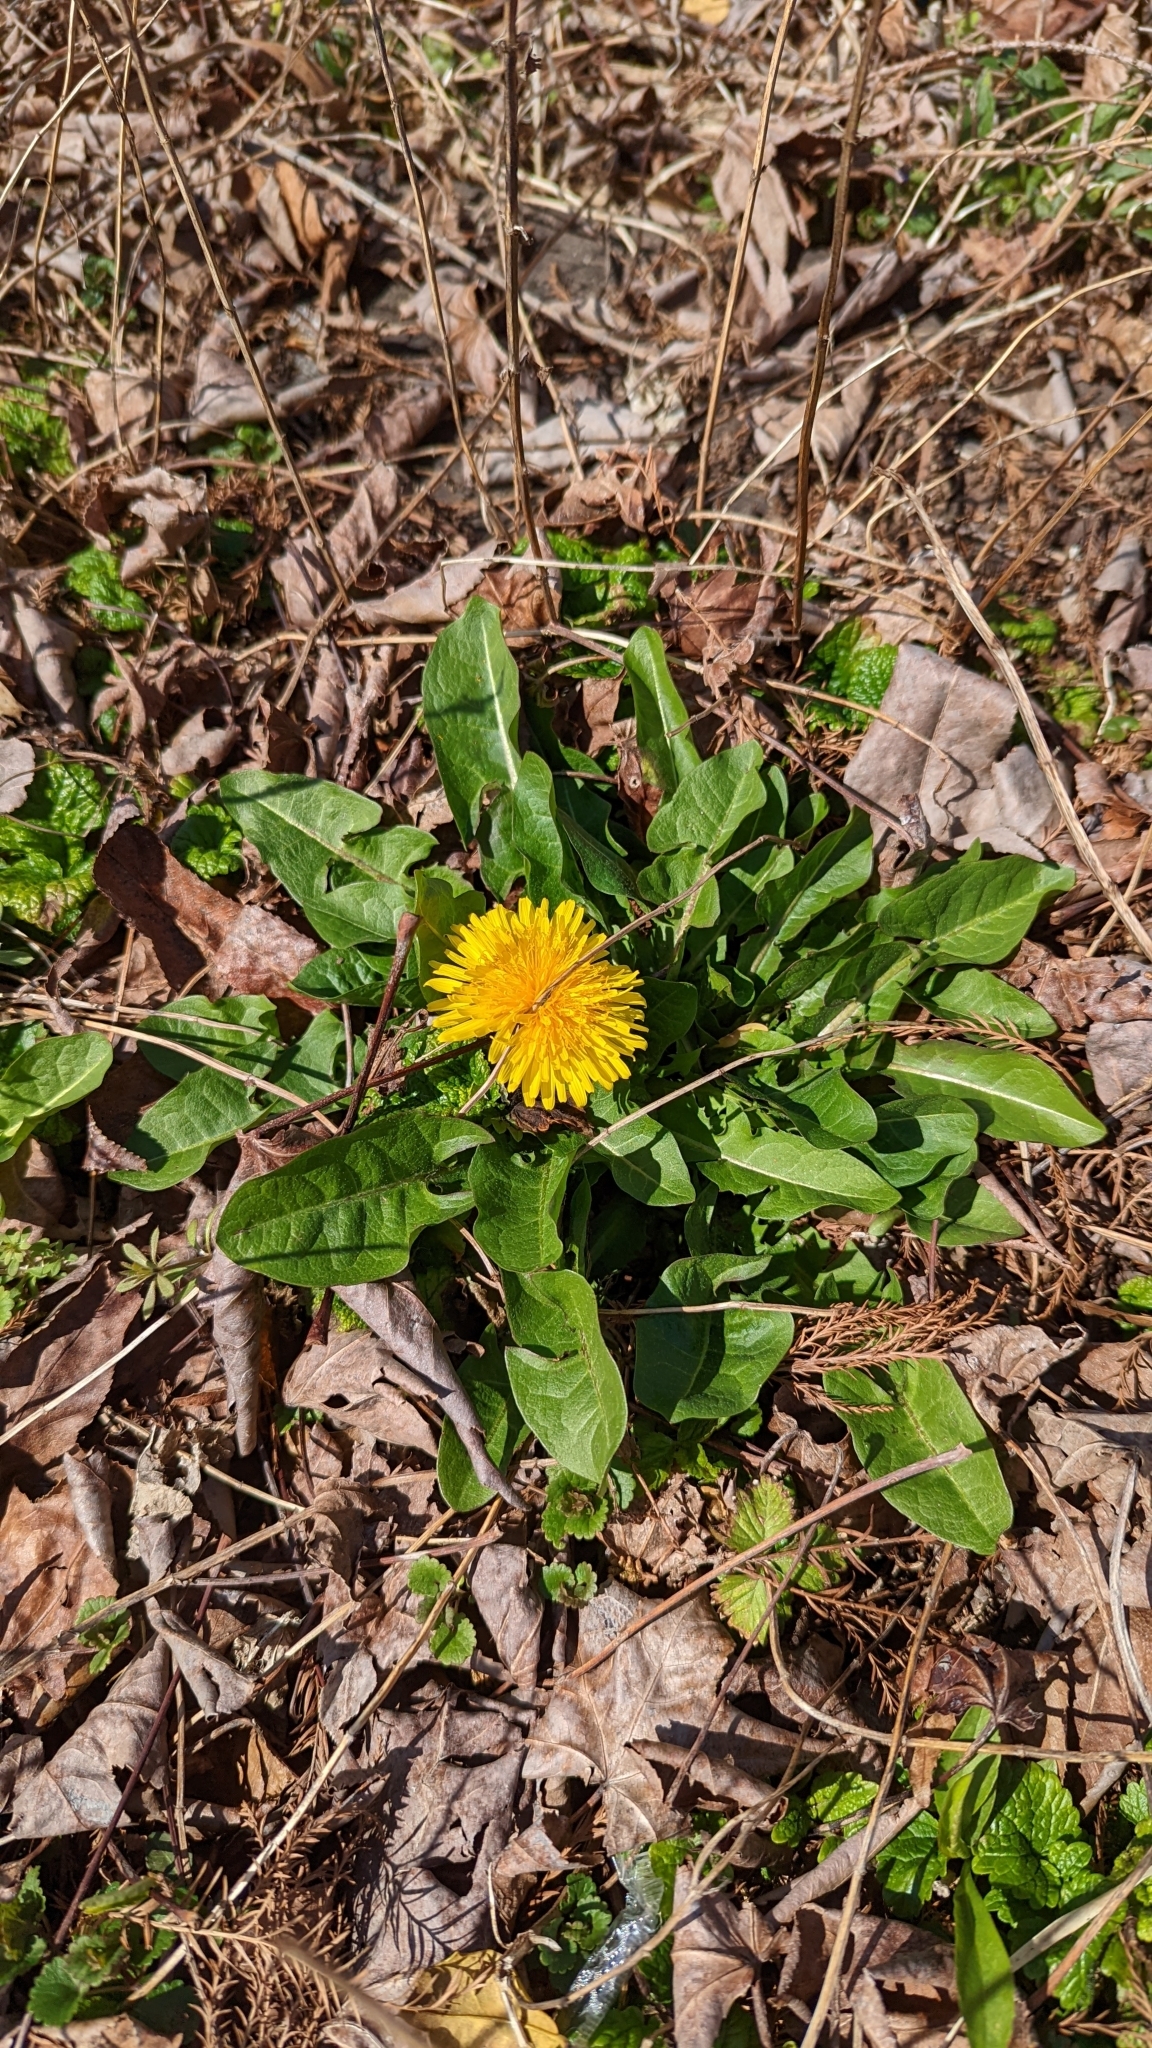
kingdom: Plantae
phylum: Tracheophyta
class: Magnoliopsida
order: Asterales
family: Asteraceae
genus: Taraxacum
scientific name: Taraxacum officinale
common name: Common dandelion
